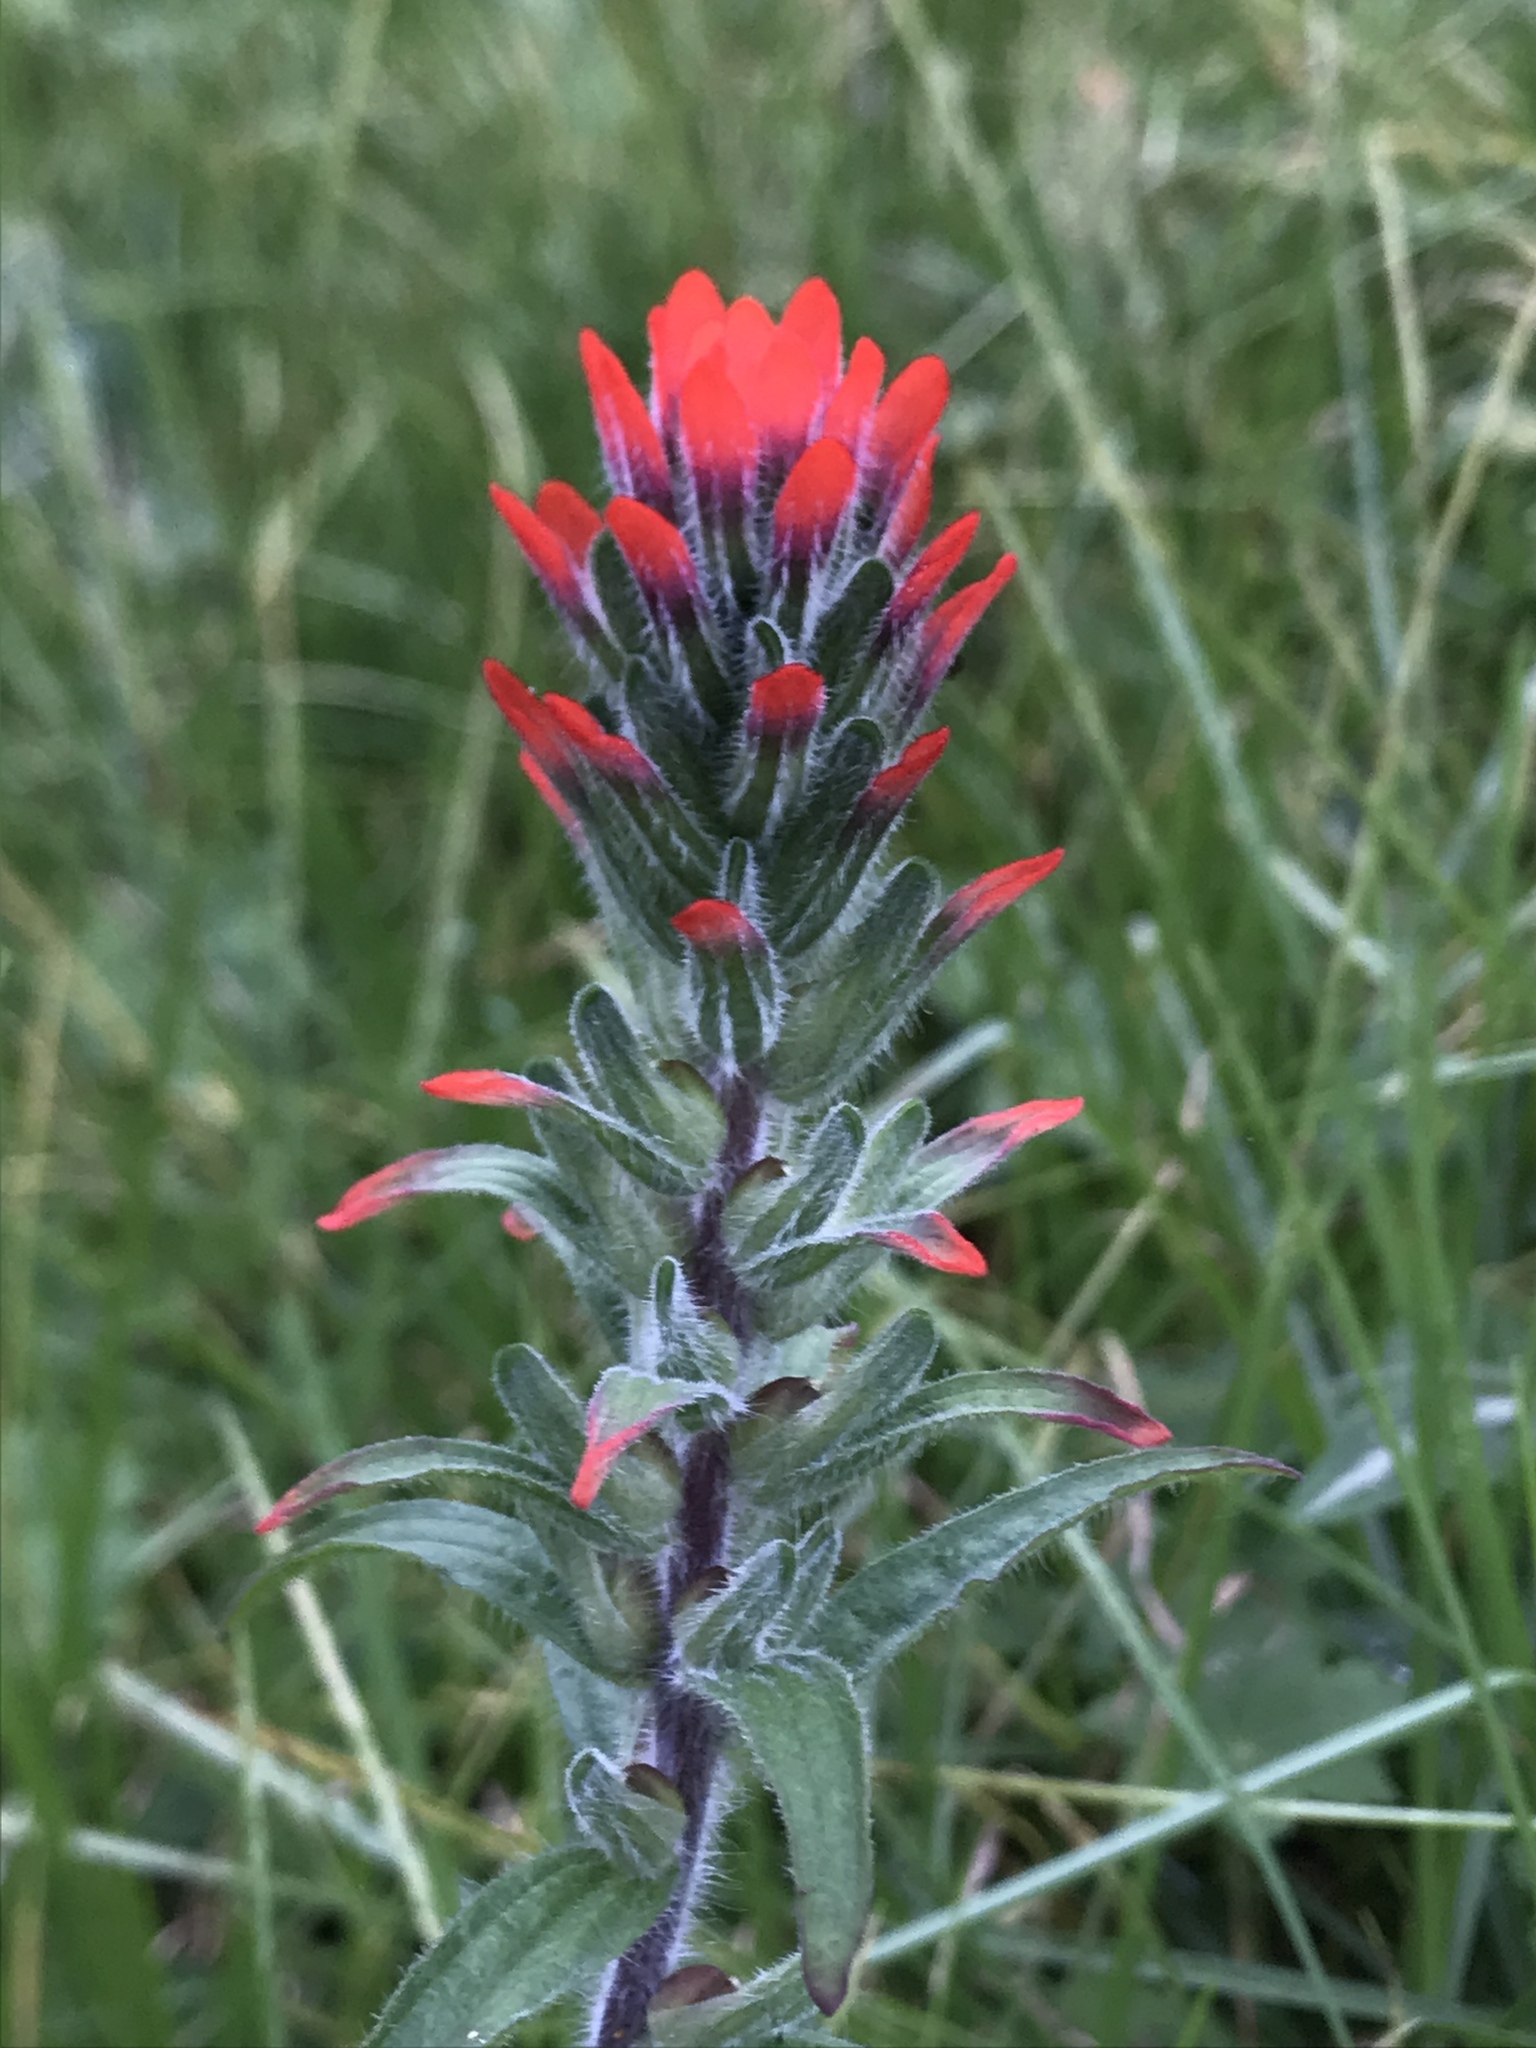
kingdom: Plantae
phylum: Tracheophyta
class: Magnoliopsida
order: Lamiales
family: Orobanchaceae
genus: Castilleja
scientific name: Castilleja arvensis
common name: Indian paintbrush
